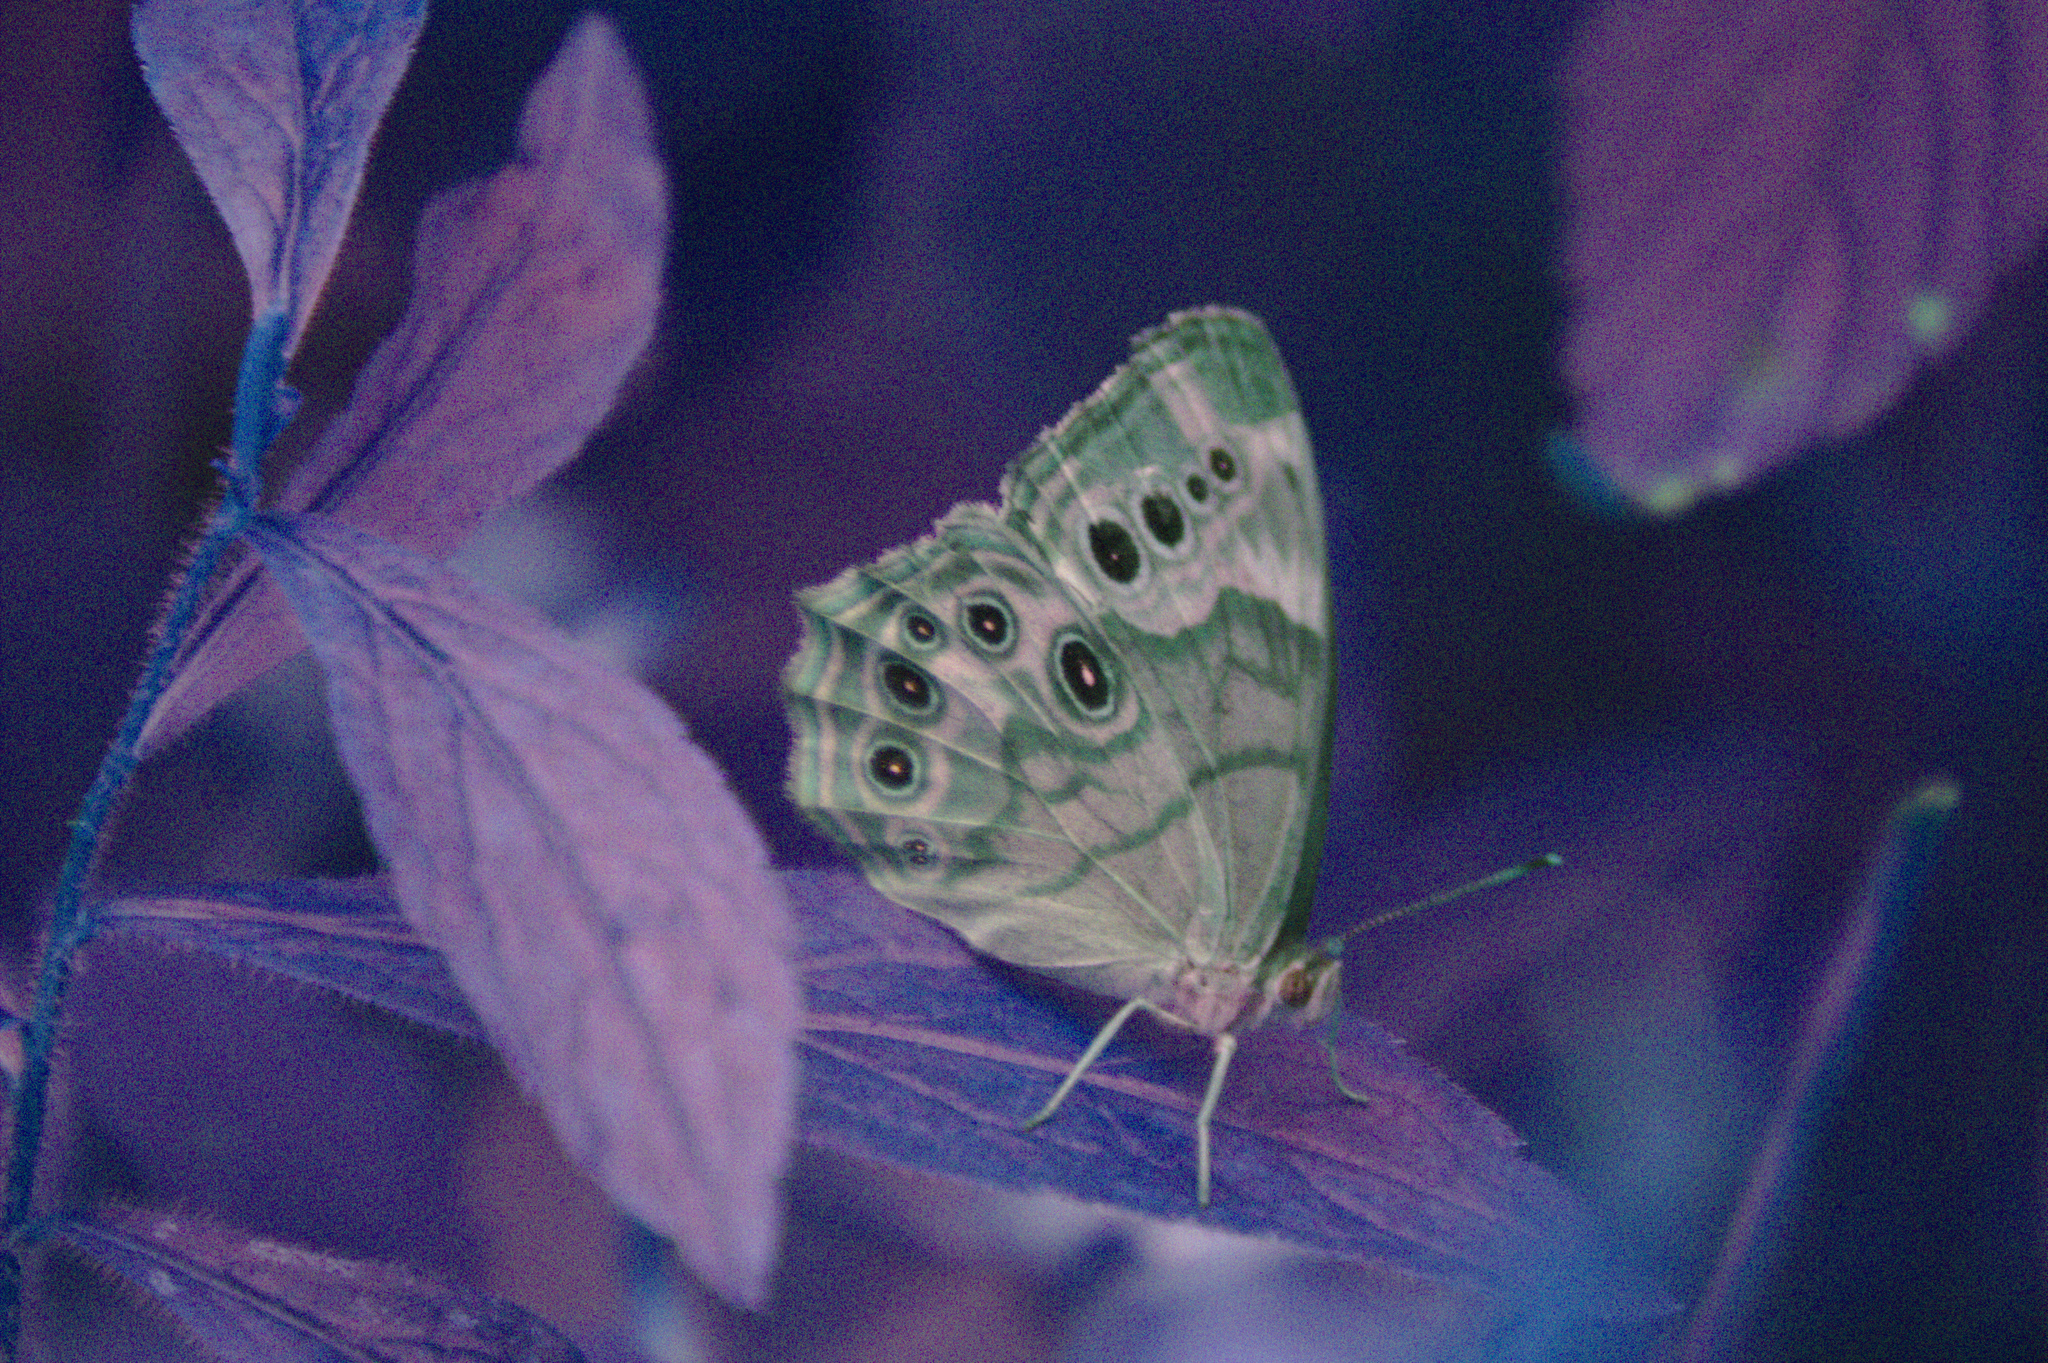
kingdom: Animalia
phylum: Arthropoda
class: Insecta
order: Lepidoptera
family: Nymphalidae
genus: Lethe
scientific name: Lethe anthedon
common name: Northern pearly-eye
